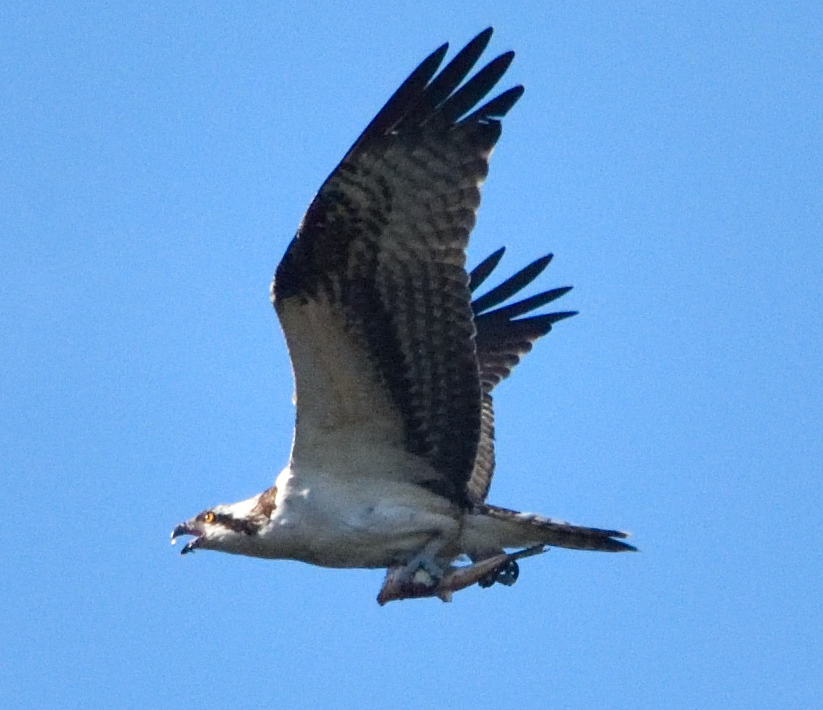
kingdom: Animalia
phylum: Chordata
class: Aves
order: Accipitriformes
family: Pandionidae
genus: Pandion
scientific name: Pandion haliaetus
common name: Osprey
